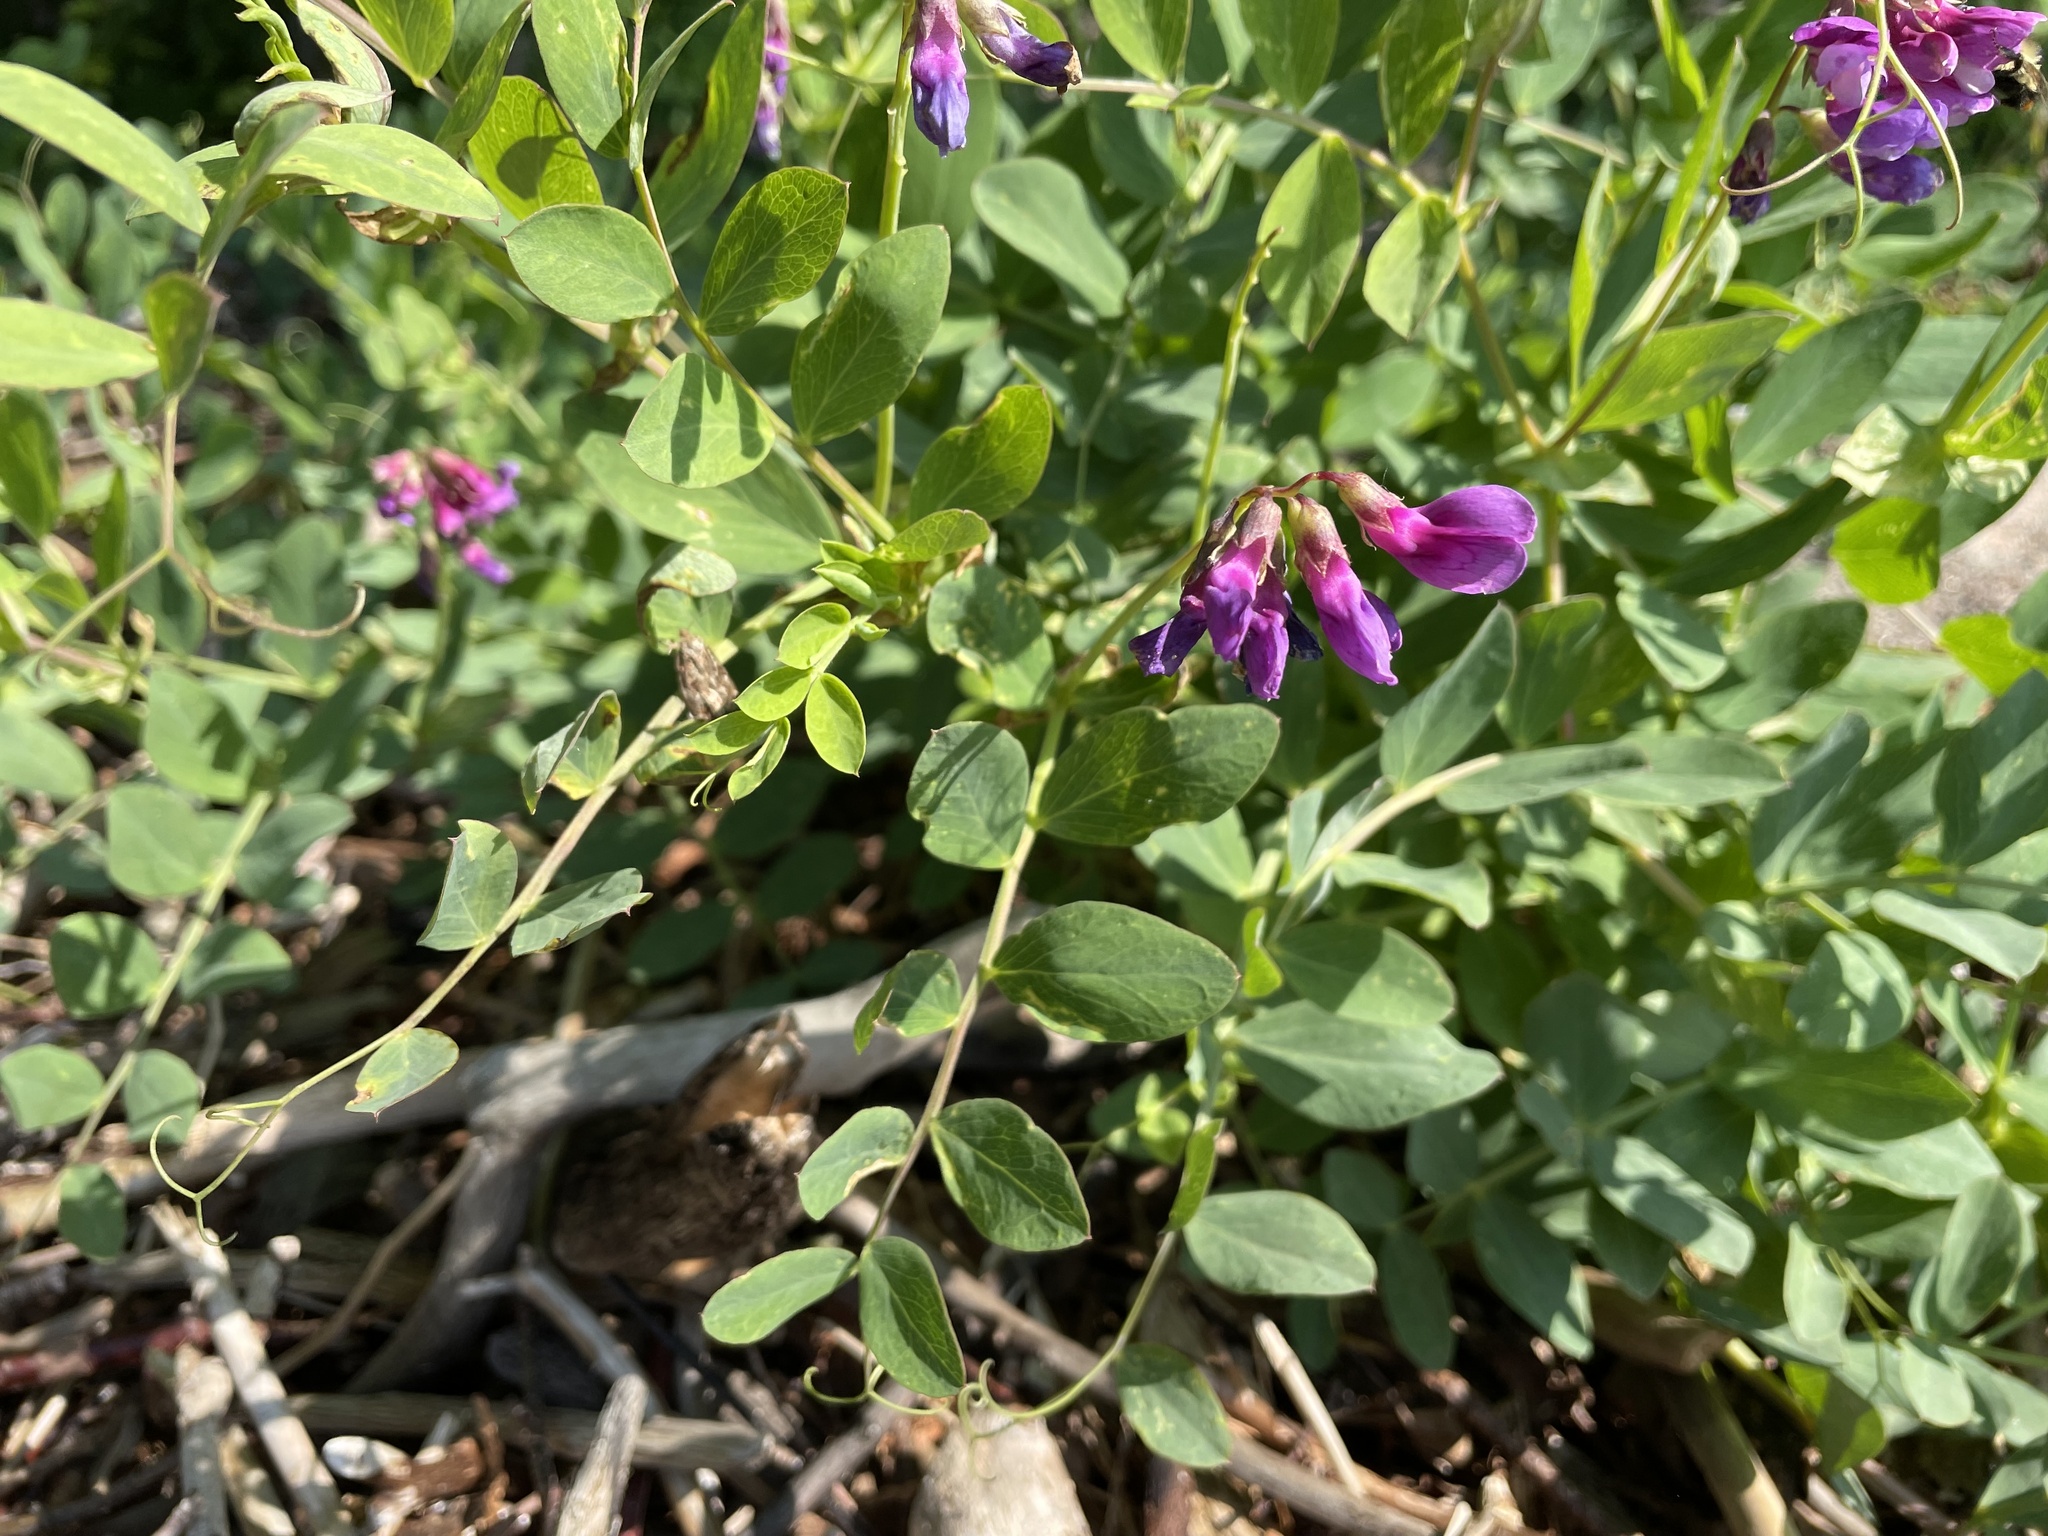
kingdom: Plantae
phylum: Tracheophyta
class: Magnoliopsida
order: Fabales
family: Fabaceae
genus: Lathyrus
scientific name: Lathyrus japonicus
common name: Sea pea
